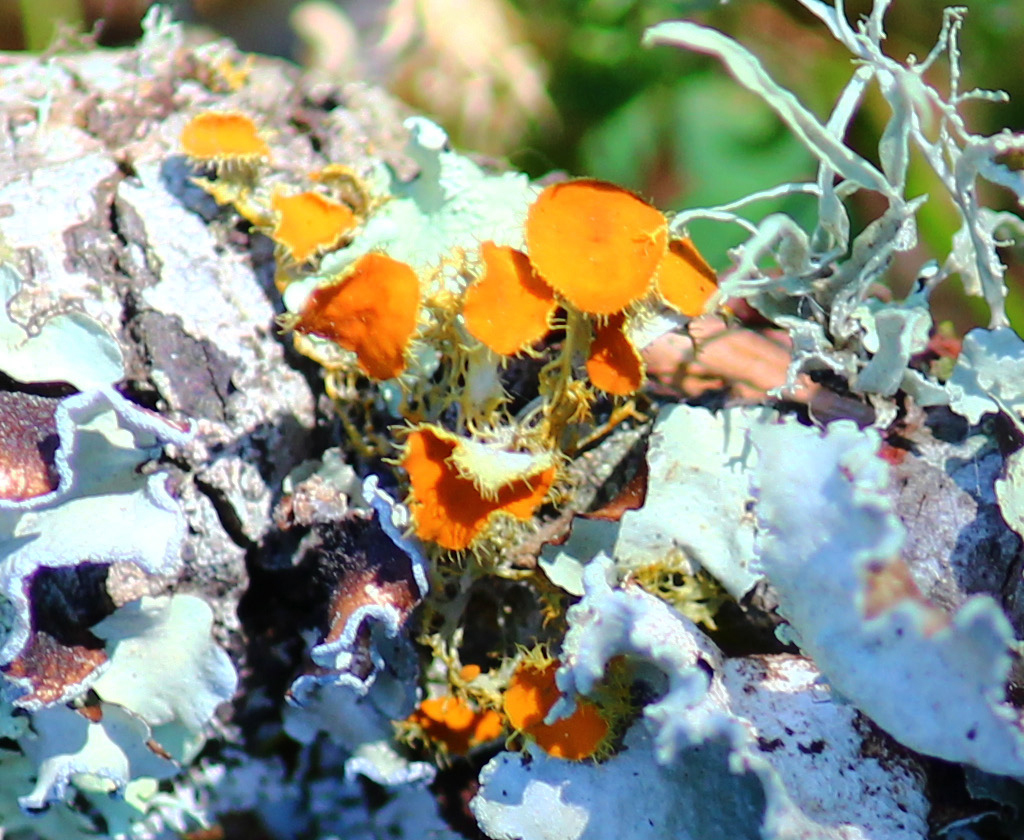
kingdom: Fungi
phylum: Ascomycota
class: Lecanoromycetes
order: Teloschistales
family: Teloschistaceae
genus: Niorma
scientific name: Niorma chrysophthalma
